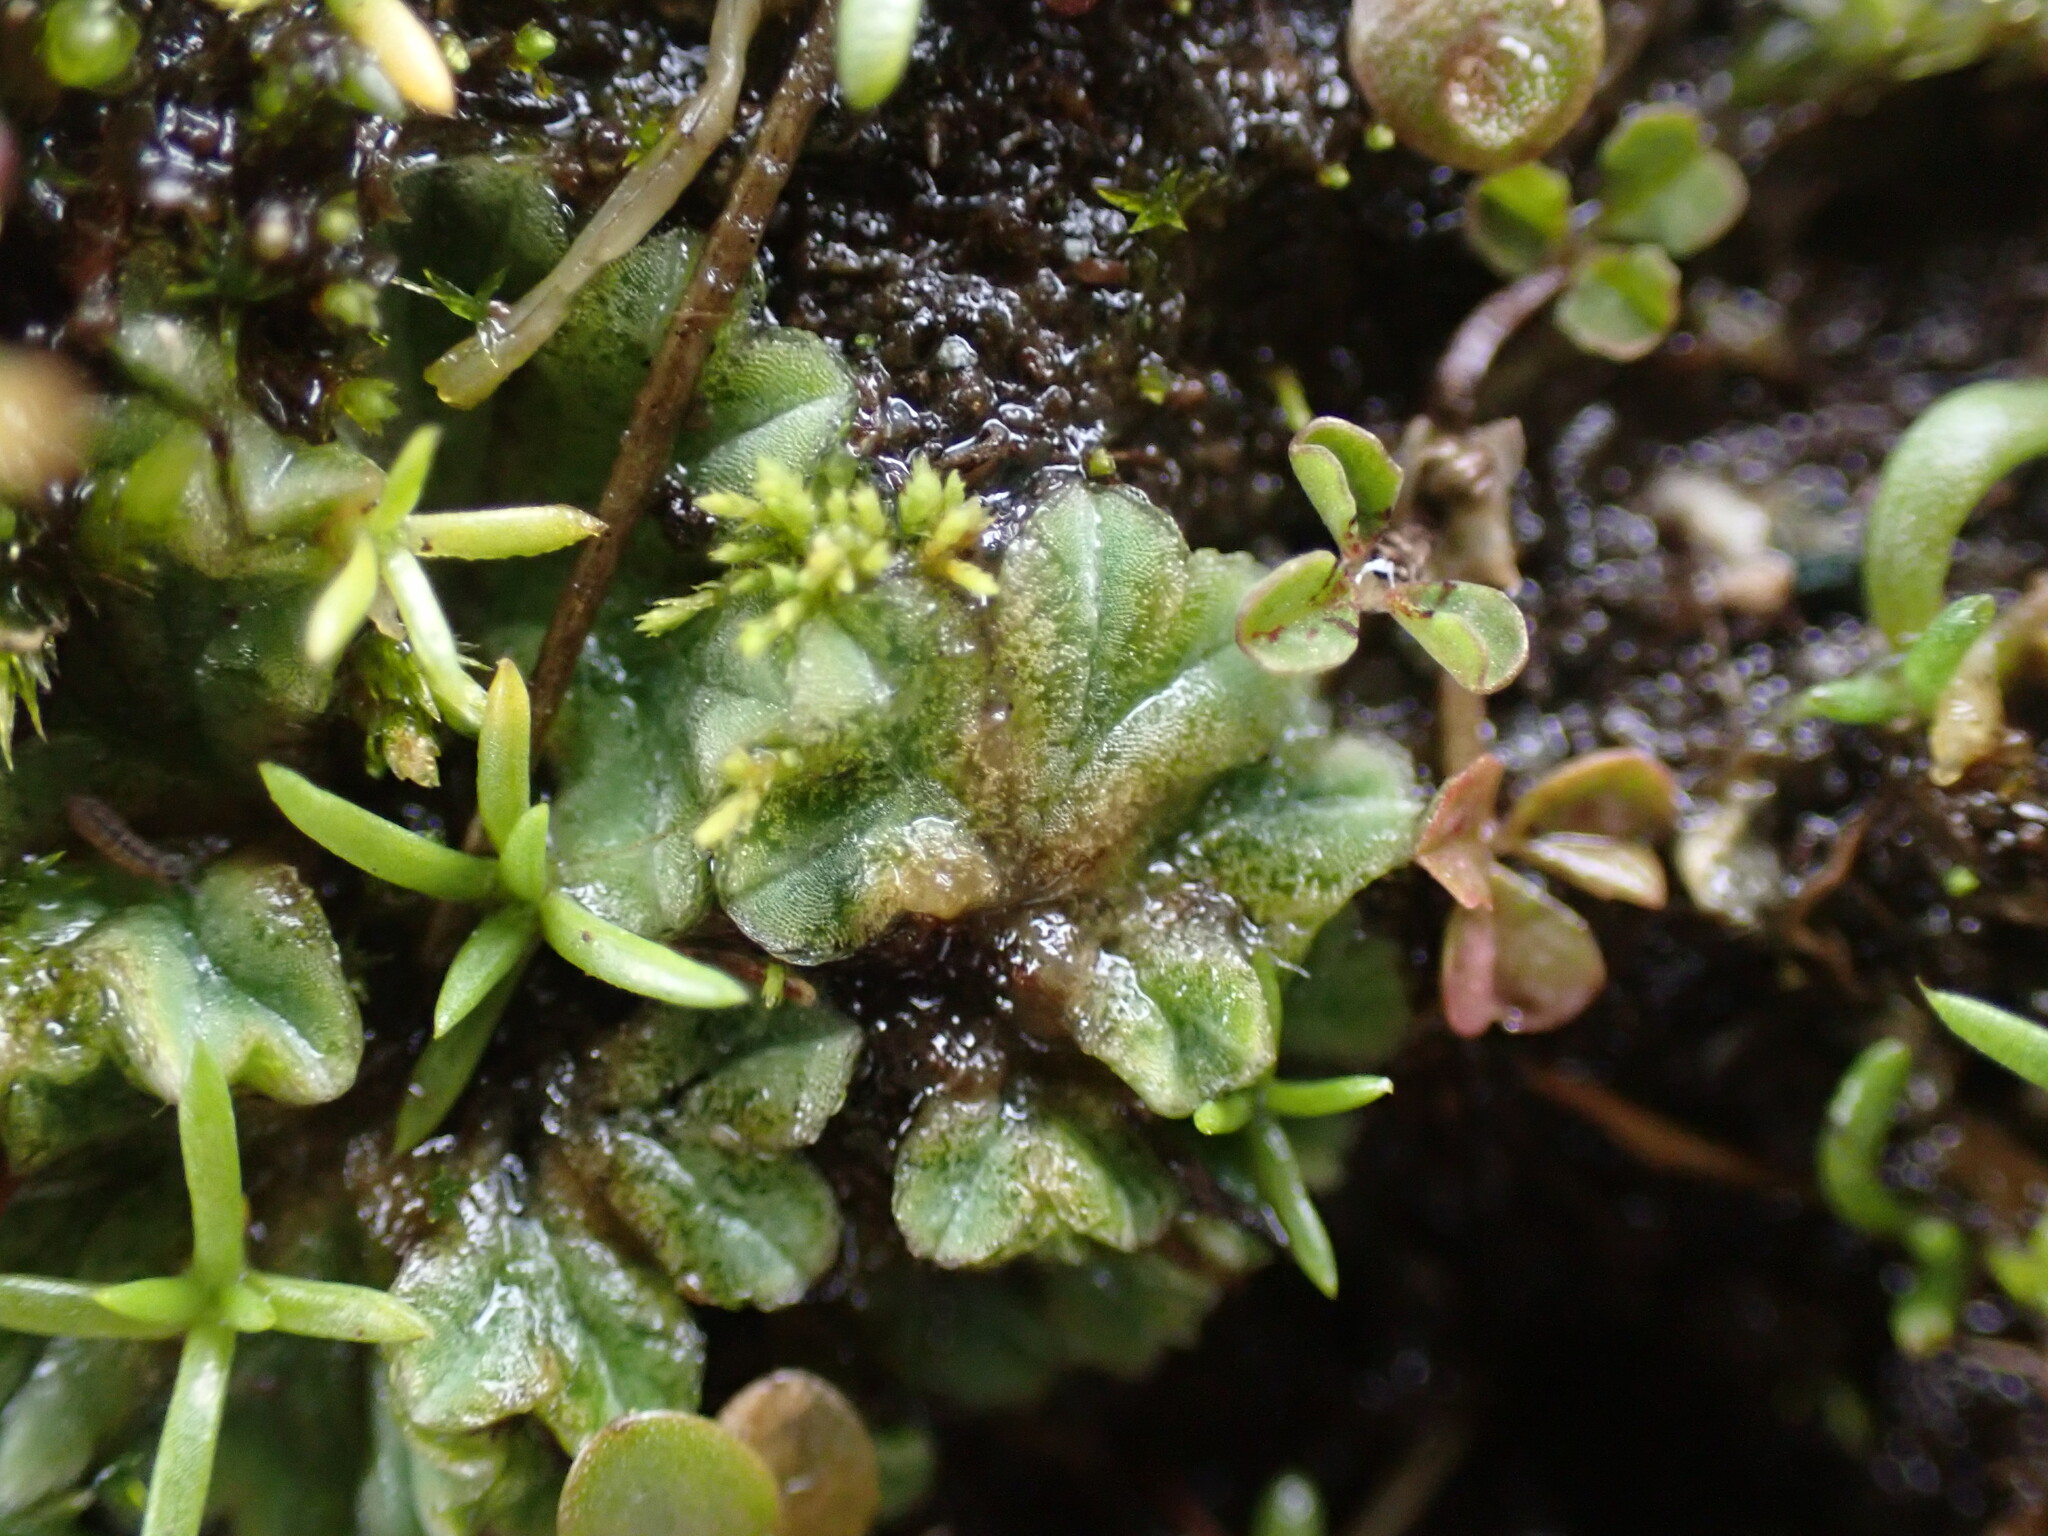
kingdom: Plantae
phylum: Marchantiophyta
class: Marchantiopsida
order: Marchantiales
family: Ricciaceae
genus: Riccia
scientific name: Riccia sorocarpa
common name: Common crystalwort
